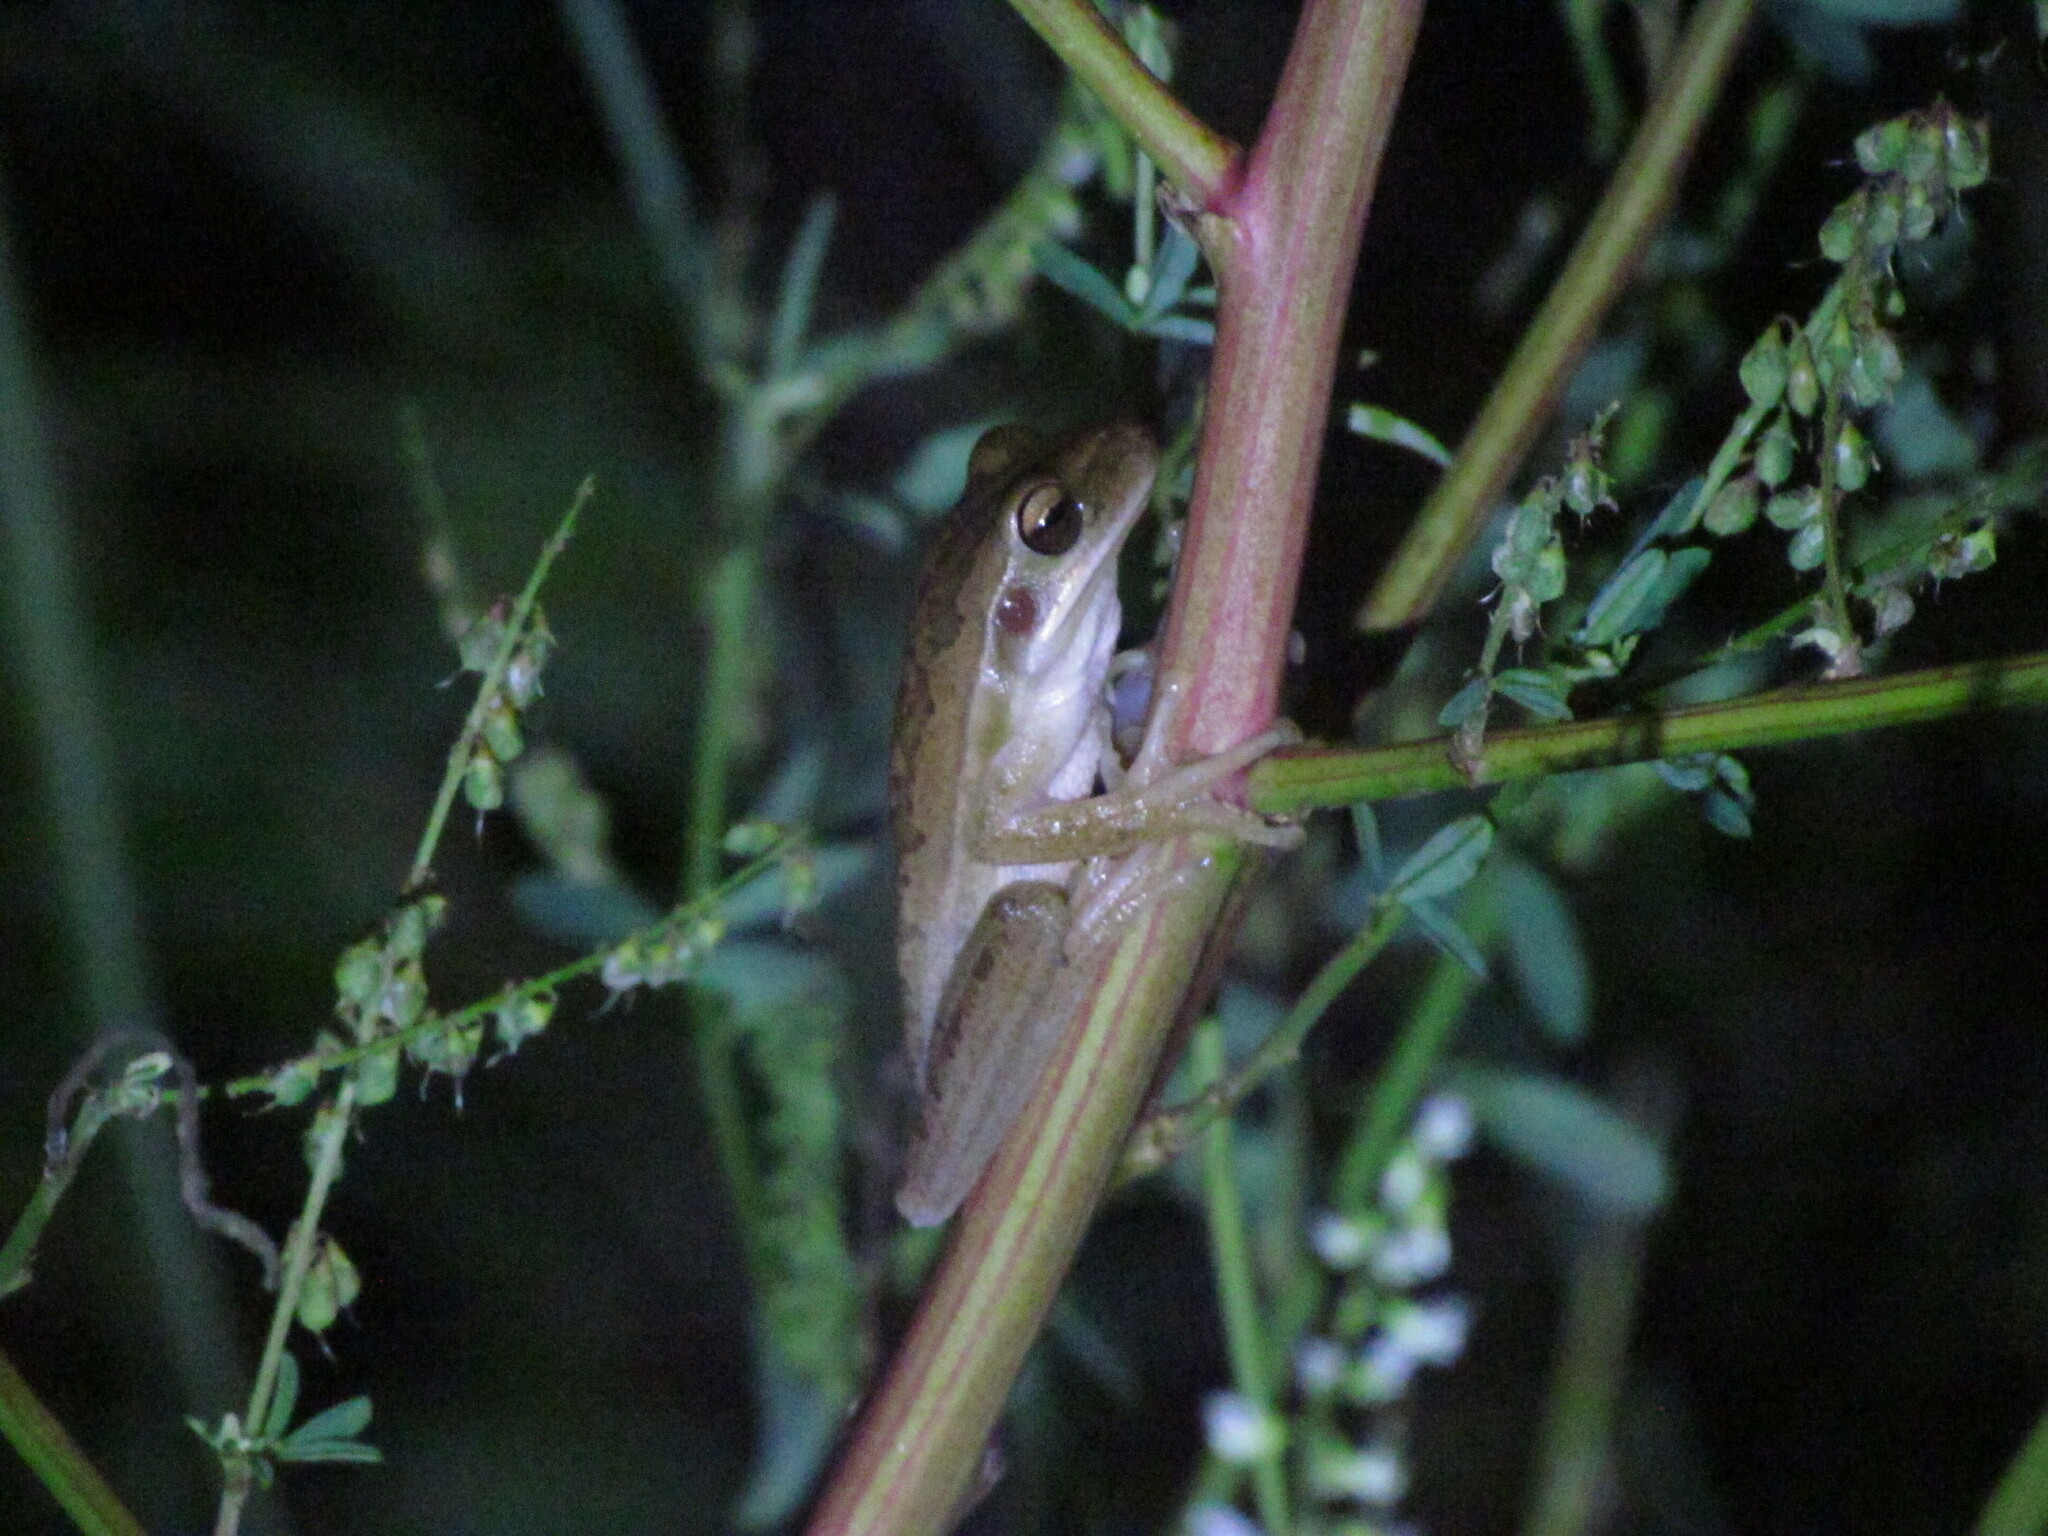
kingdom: Animalia
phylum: Chordata
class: Amphibia
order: Anura
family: Hylidae
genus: Boana
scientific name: Boana pulchella
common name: Montevideo treefrog
